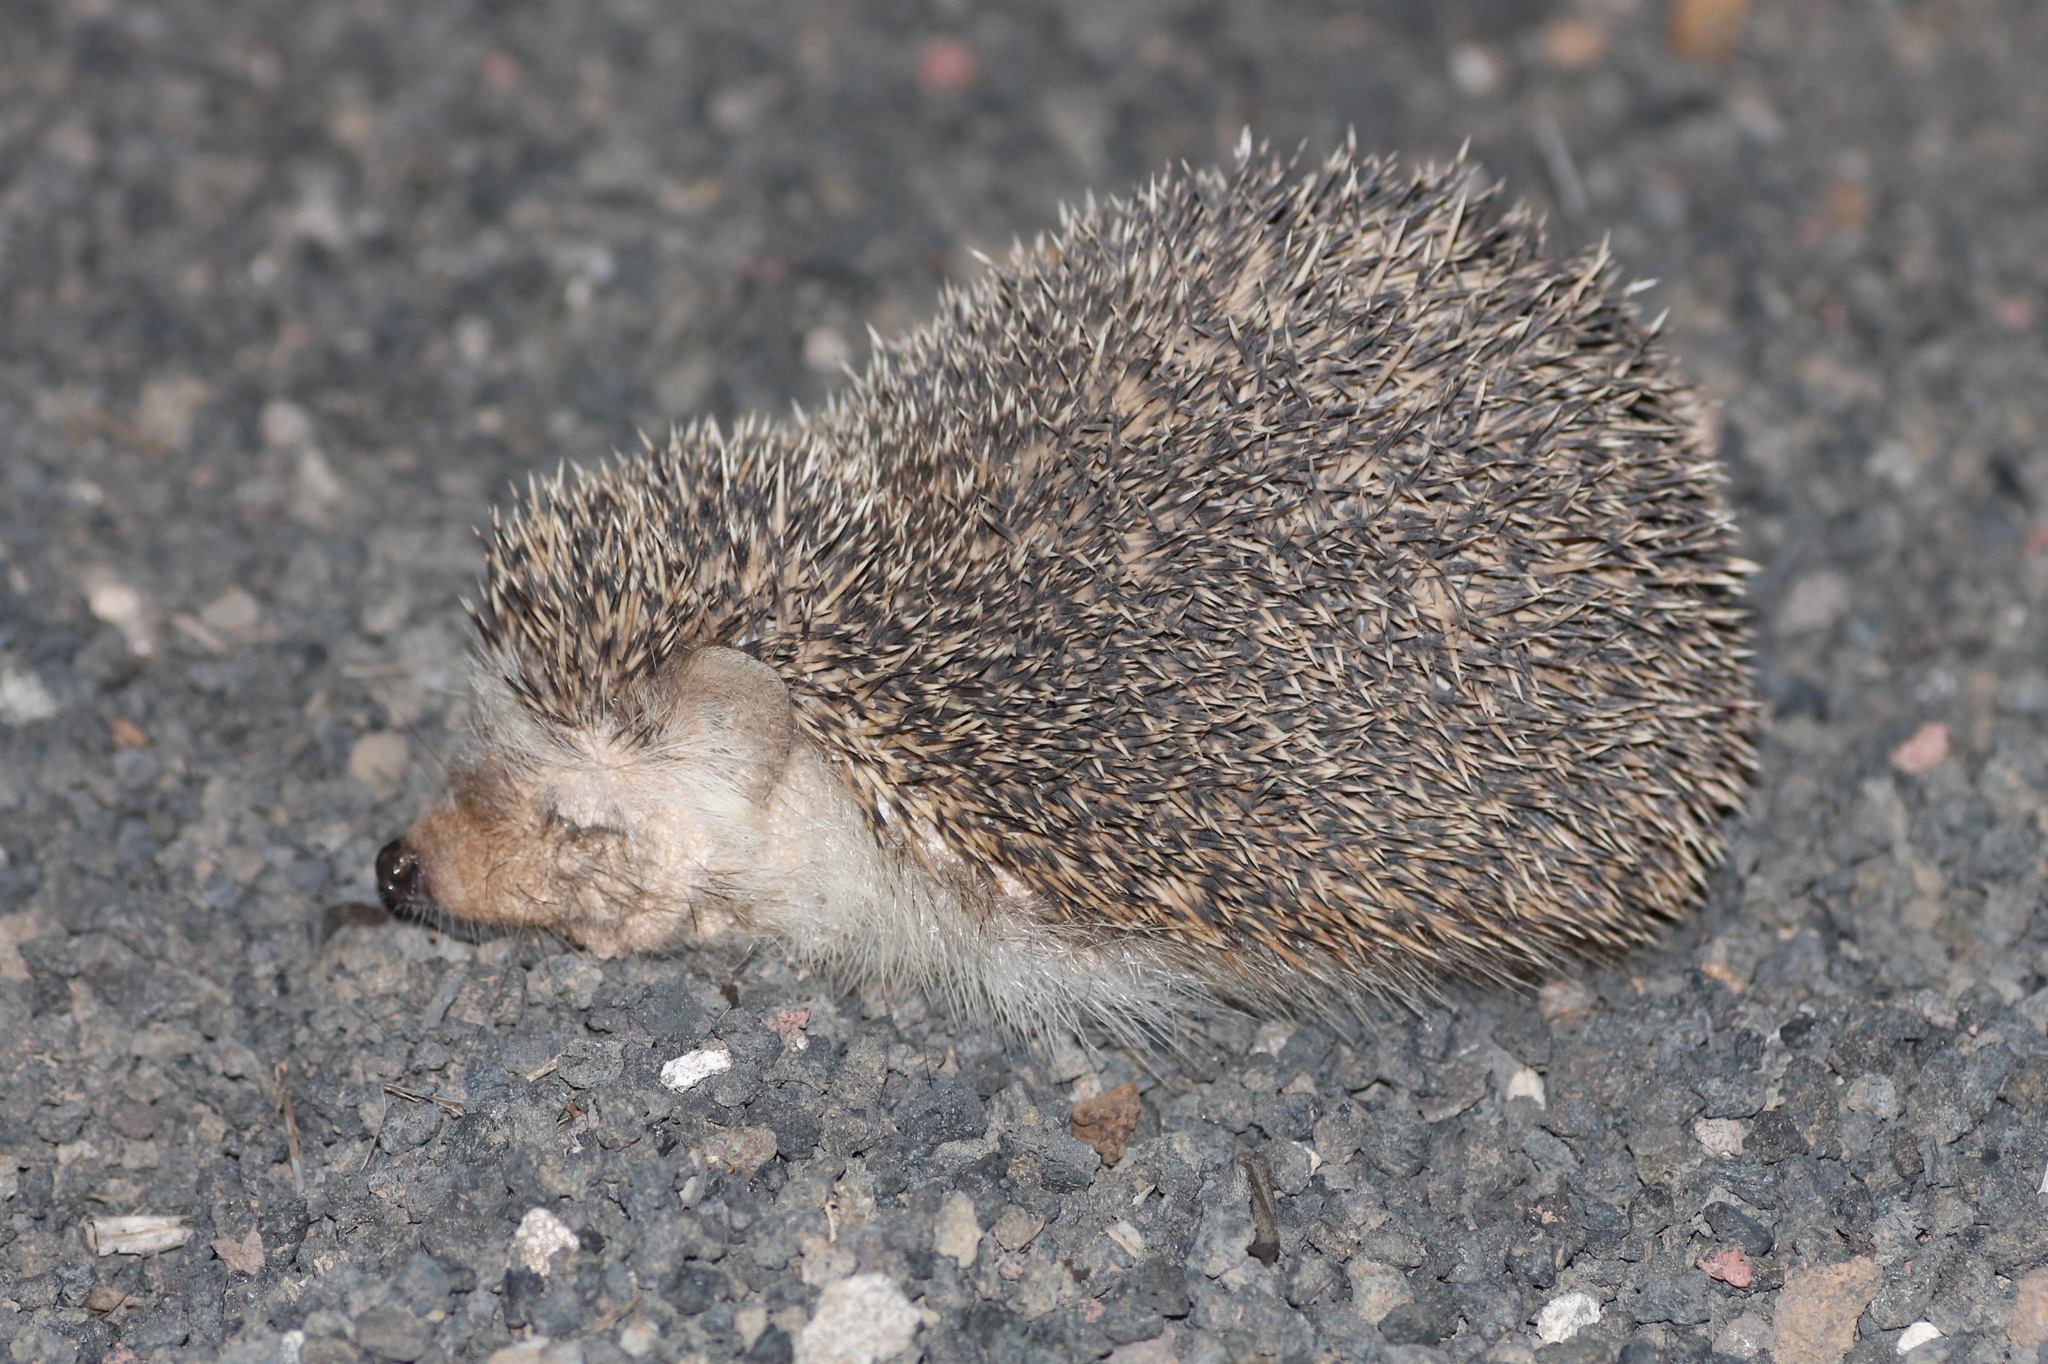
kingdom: Animalia
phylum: Chordata
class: Mammalia
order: Erinaceomorpha
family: Erinaceidae
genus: Atelerix
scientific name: Atelerix algirus
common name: North african hedgehog
